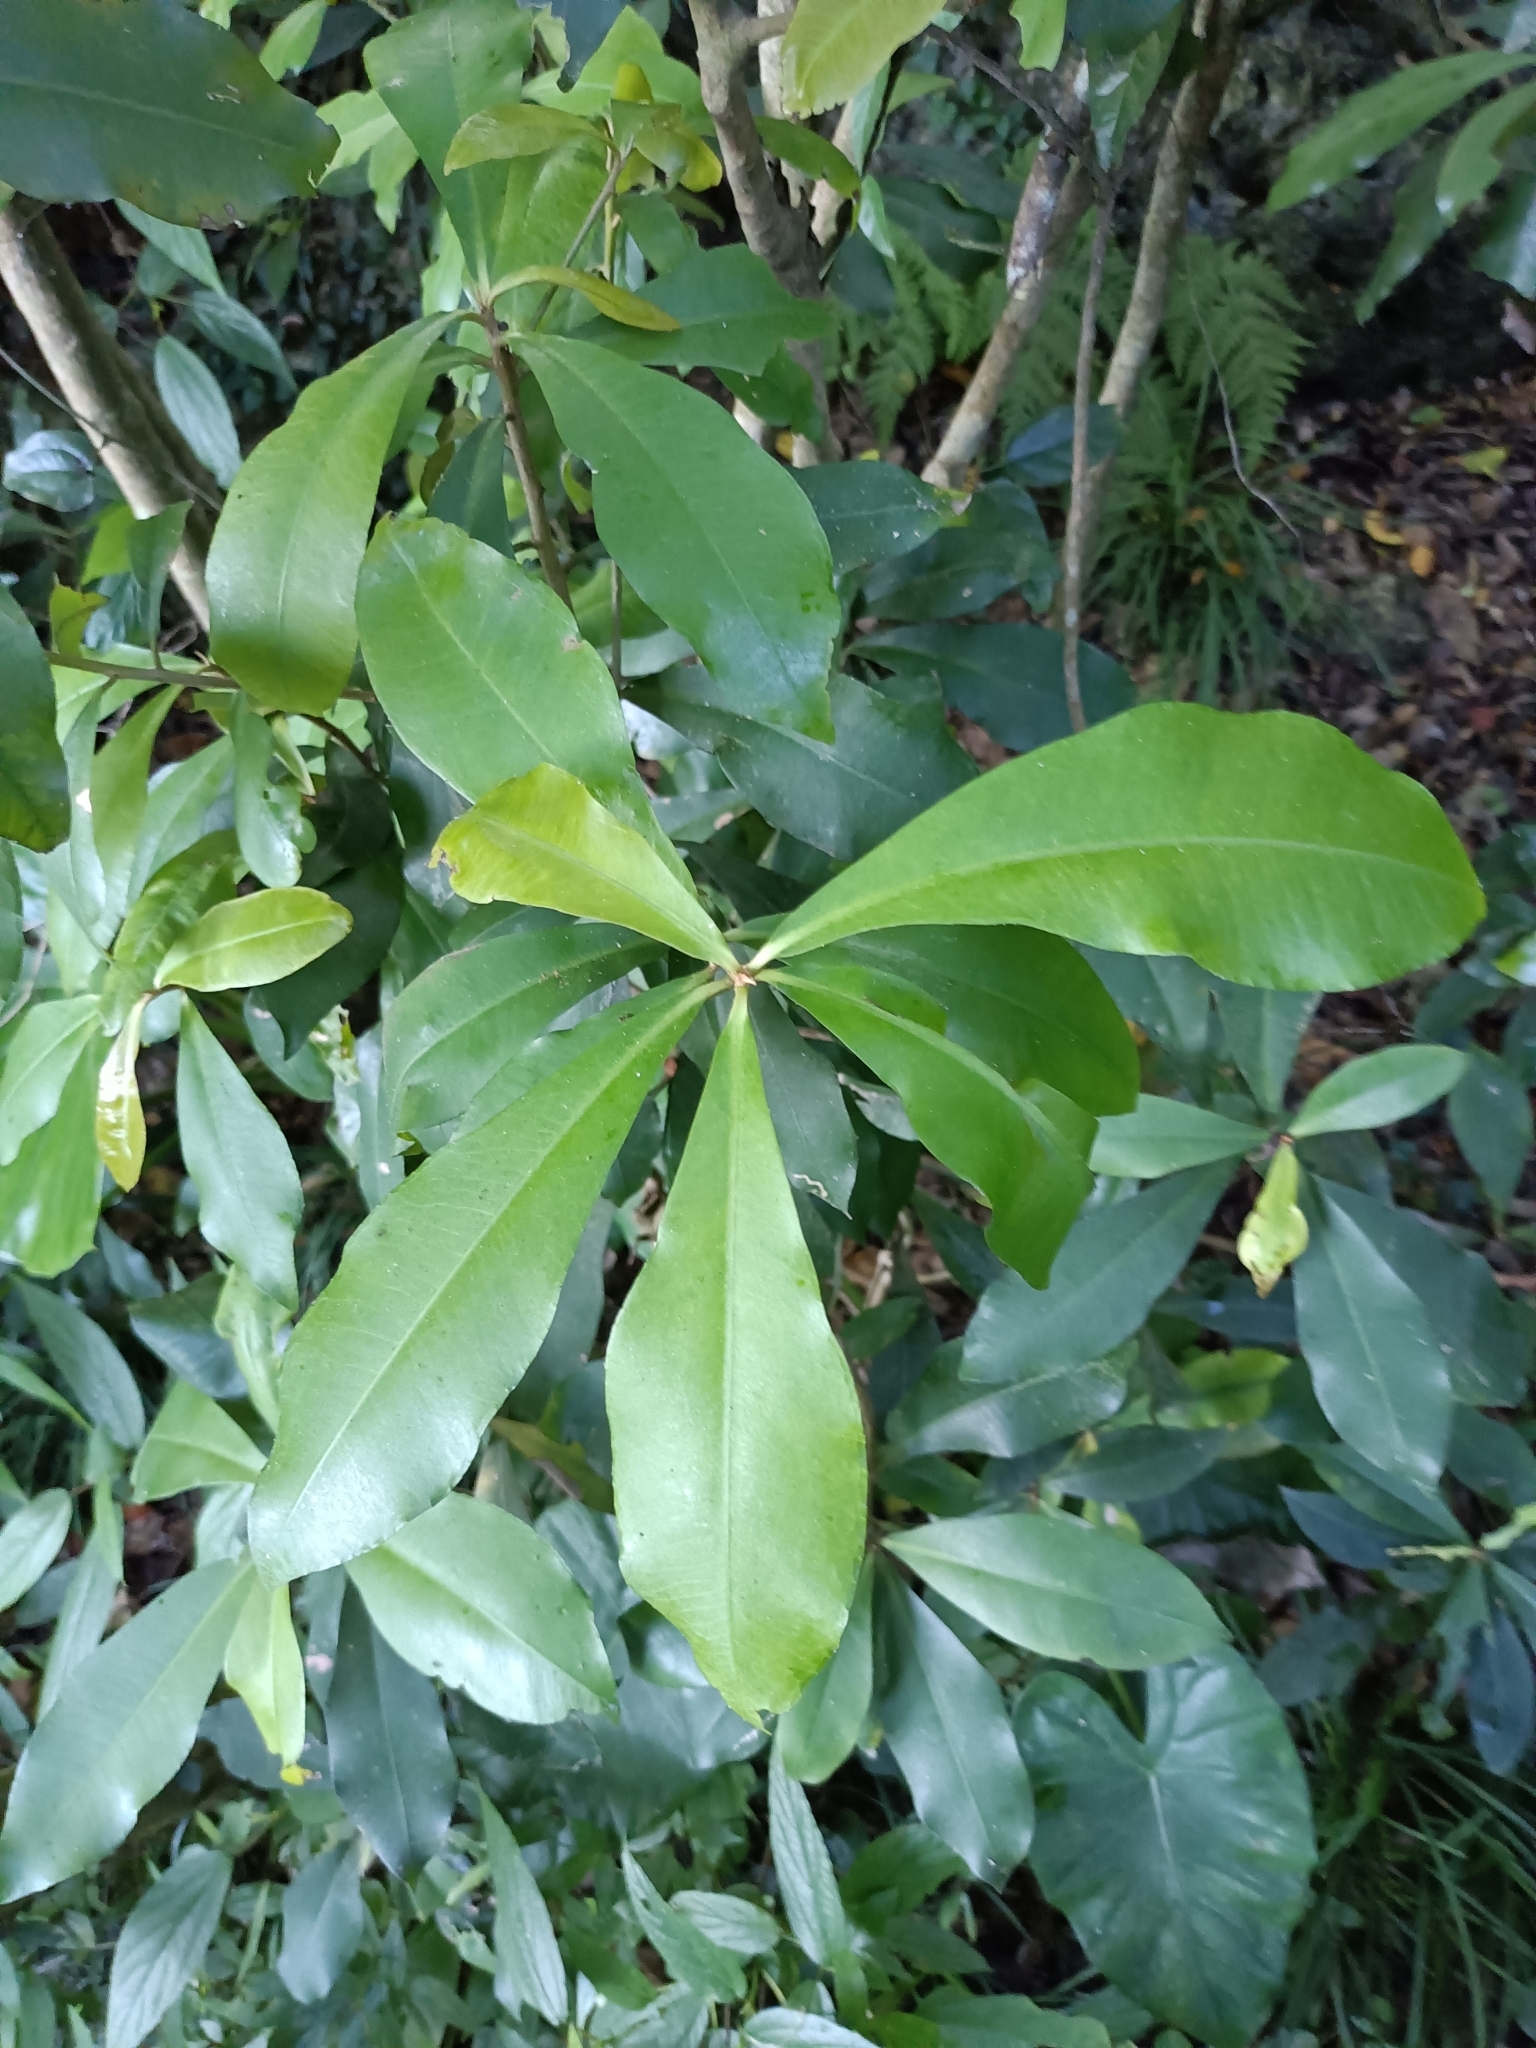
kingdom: Plantae
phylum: Tracheophyta
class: Magnoliopsida
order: Ericales
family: Primulaceae
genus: Ardisia
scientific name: Ardisia sieboldii
